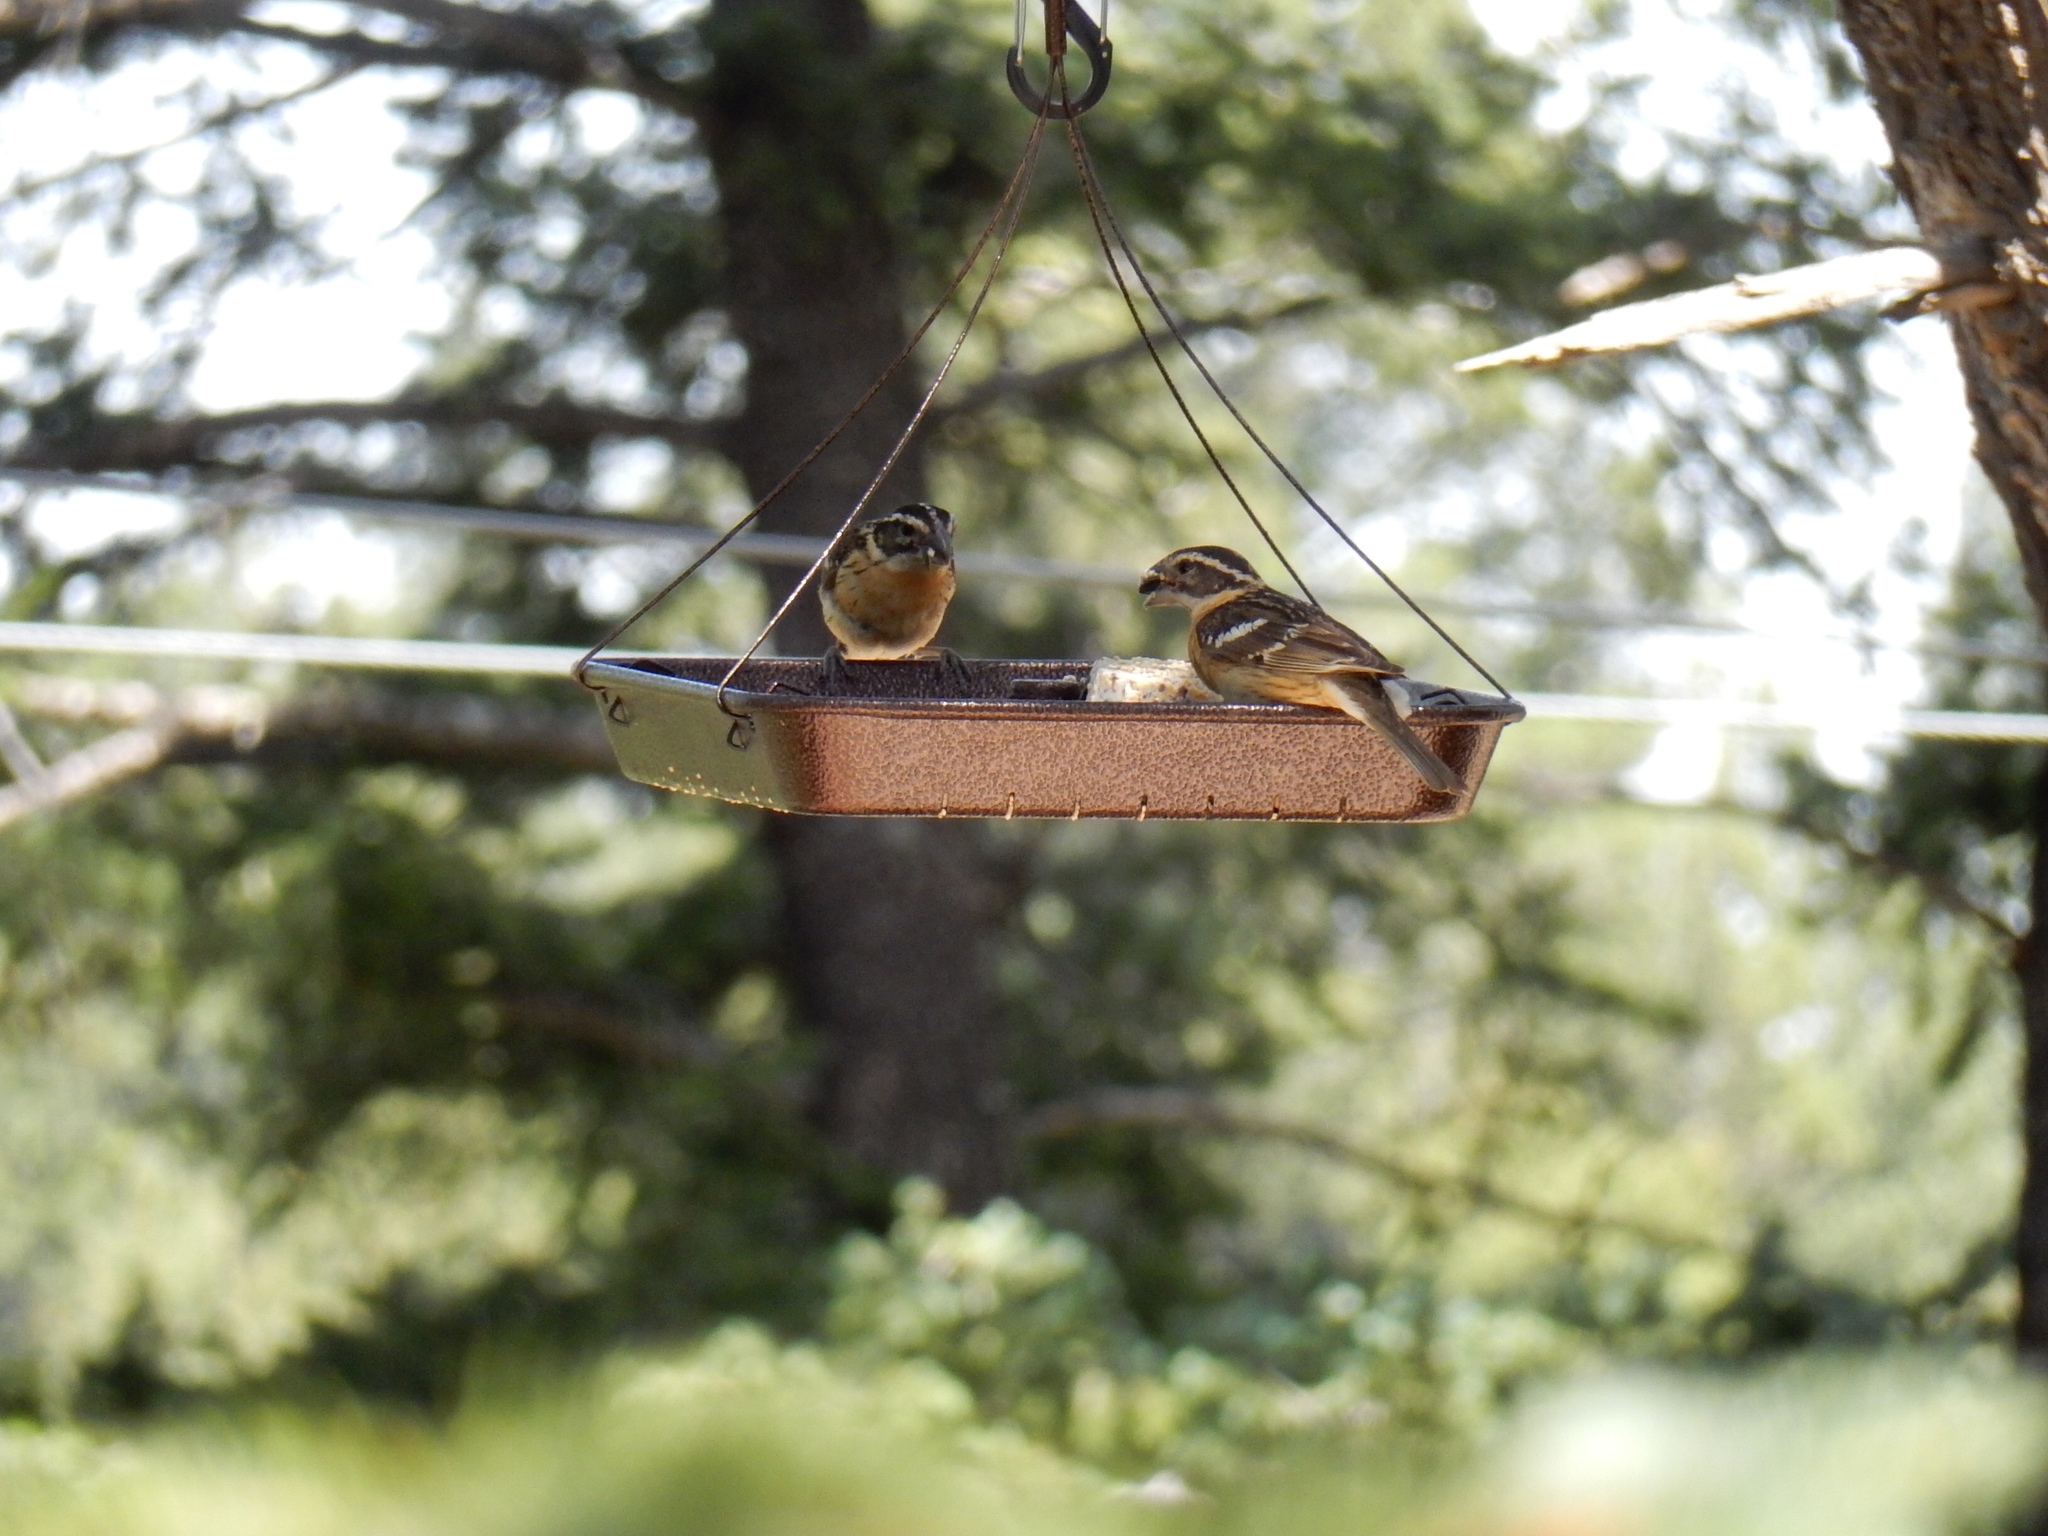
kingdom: Animalia
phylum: Chordata
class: Aves
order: Passeriformes
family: Cardinalidae
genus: Pheucticus
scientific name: Pheucticus melanocephalus
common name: Black-headed grosbeak
